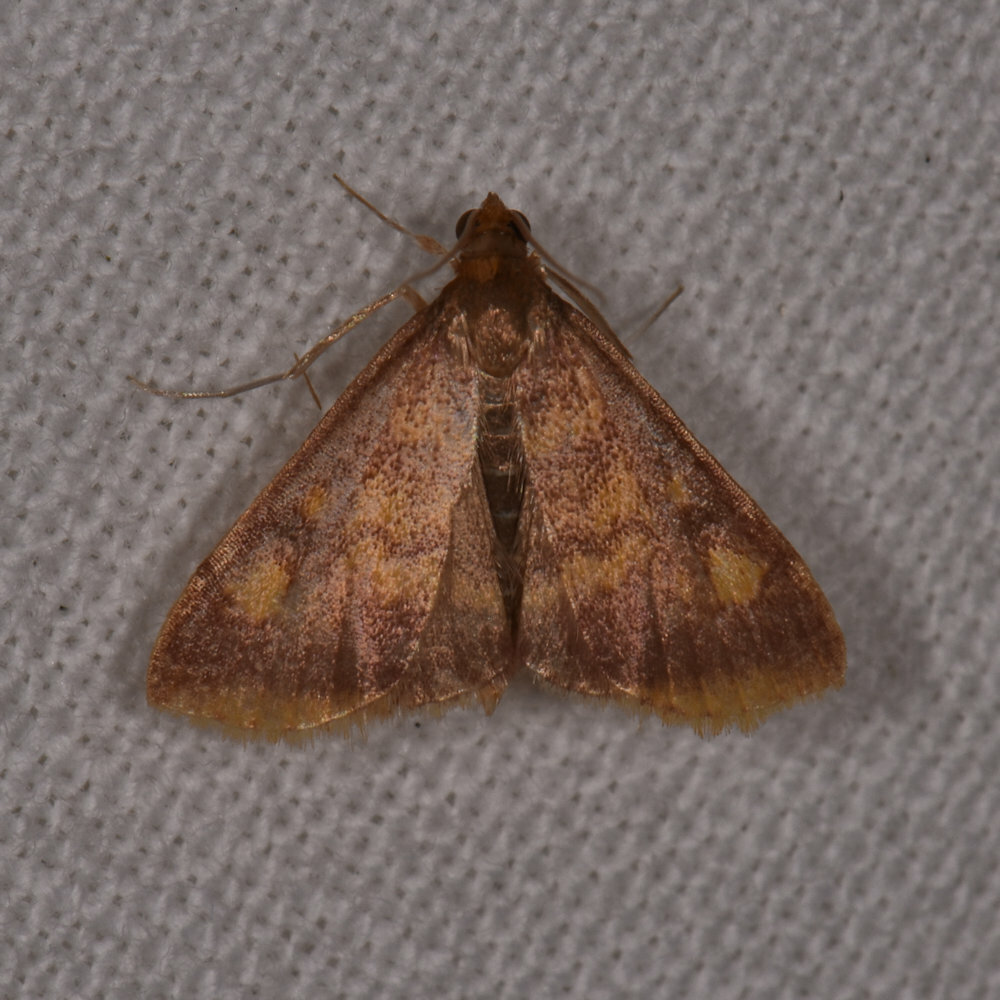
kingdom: Animalia
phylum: Arthropoda
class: Insecta
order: Lepidoptera
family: Crambidae
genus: Pyrausta
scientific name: Pyrausta acrionalis
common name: Mint-loving pyrausta moth
